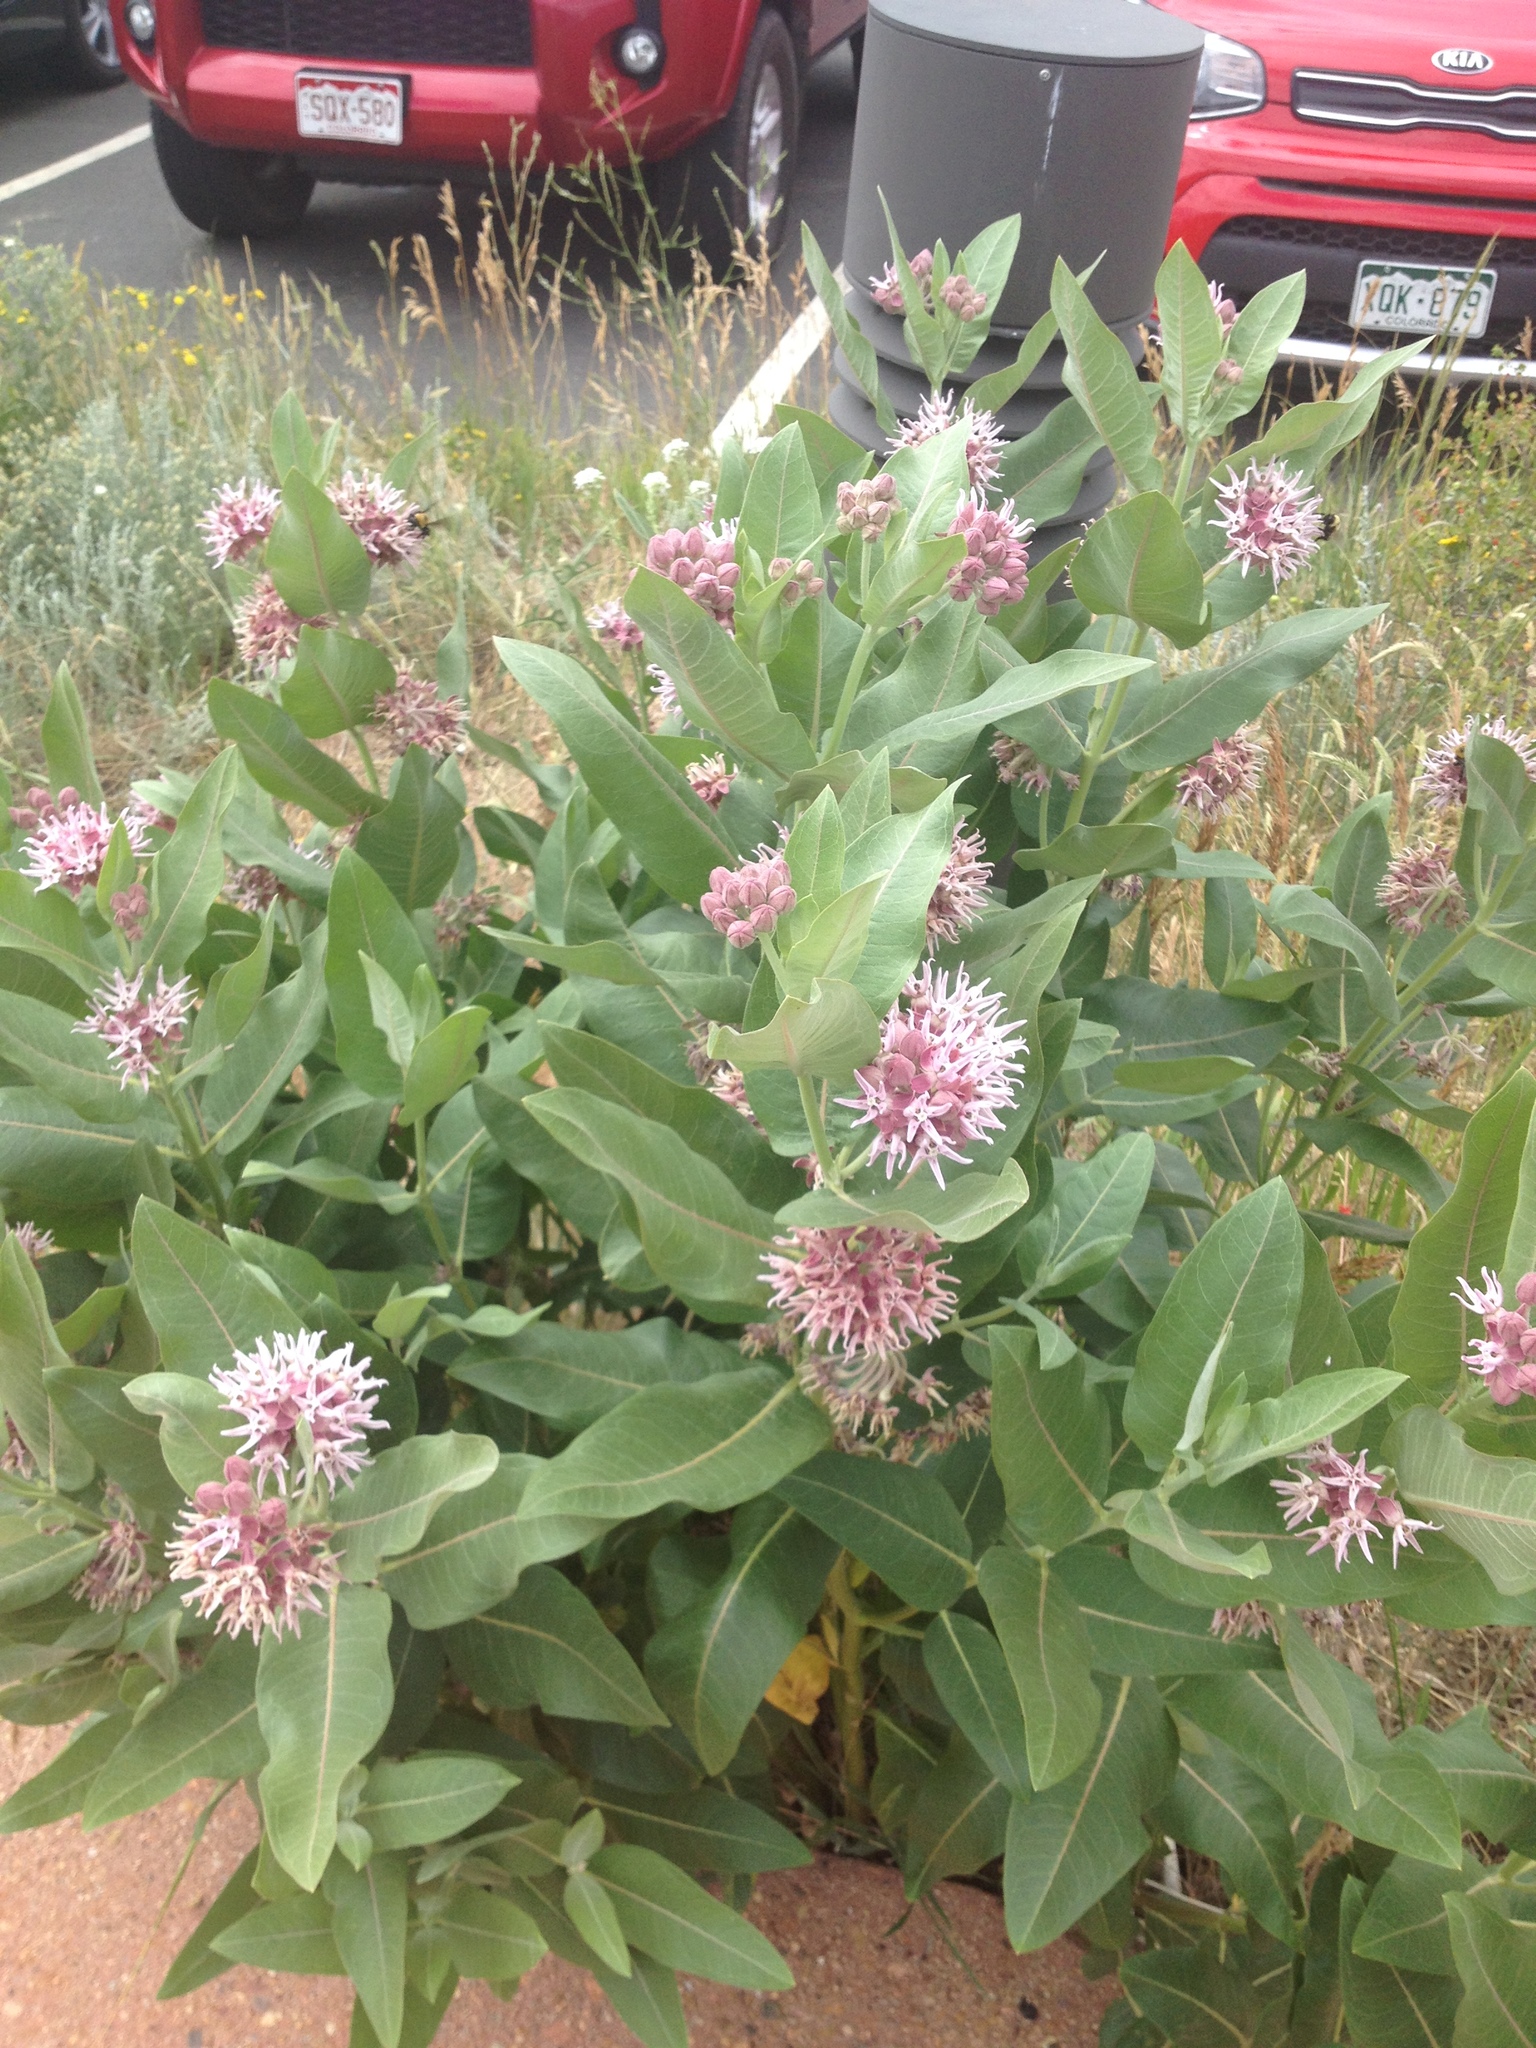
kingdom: Plantae
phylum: Tracheophyta
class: Magnoliopsida
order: Gentianales
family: Apocynaceae
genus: Asclepias
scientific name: Asclepias speciosa
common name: Showy milkweed
